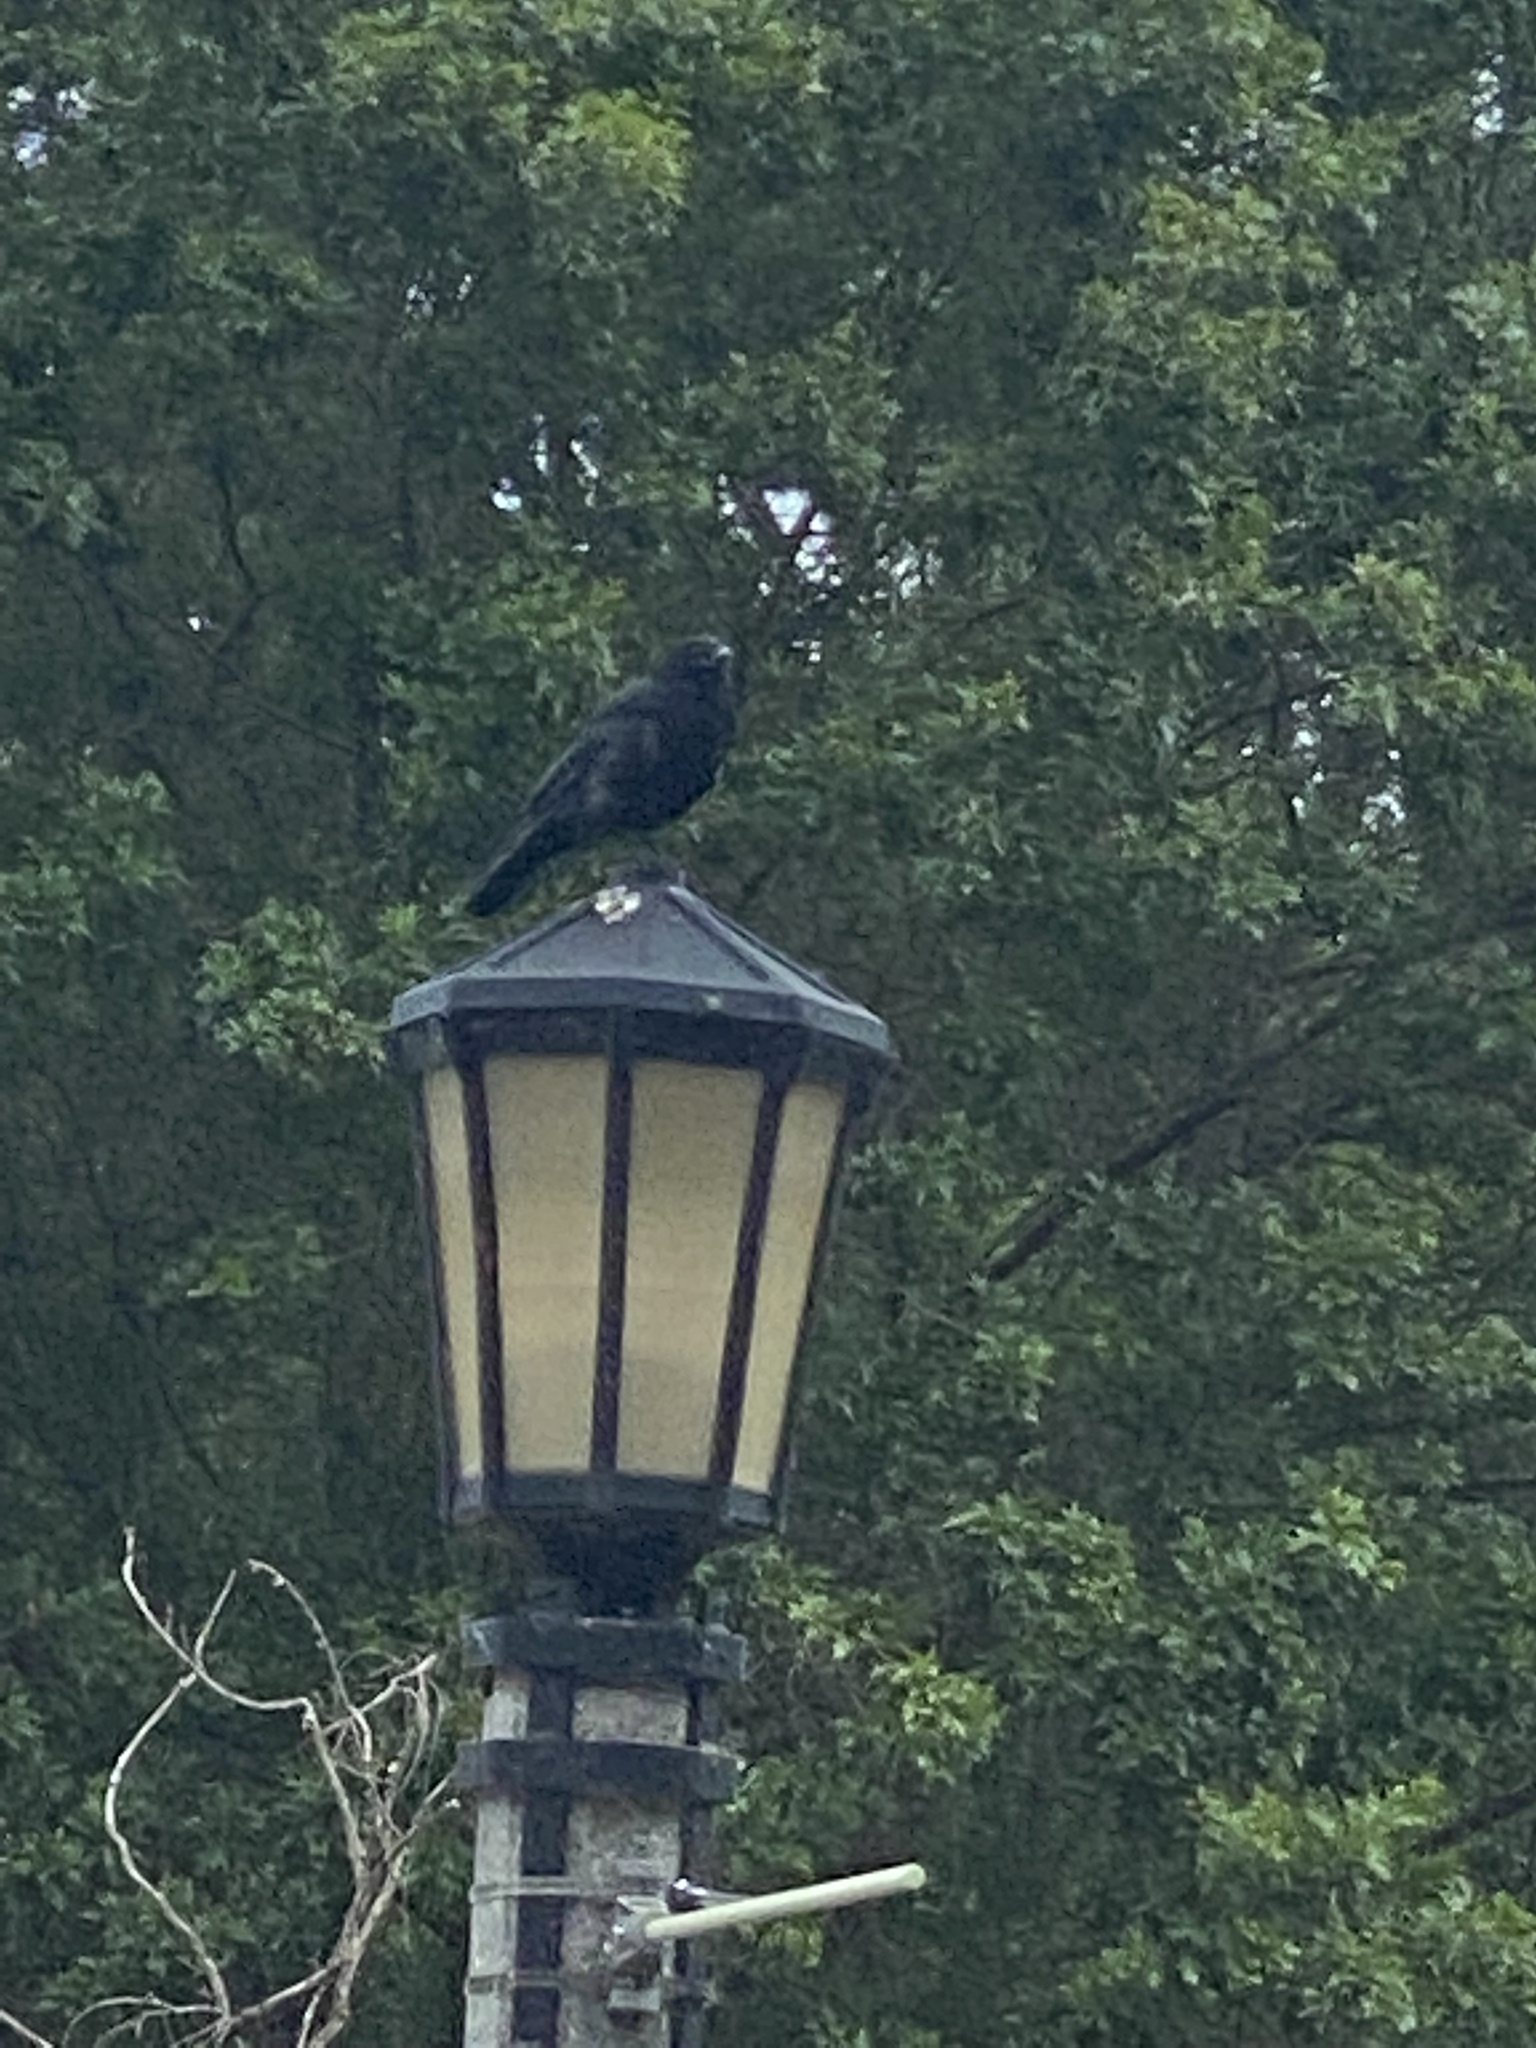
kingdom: Animalia
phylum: Chordata
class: Aves
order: Passeriformes
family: Corvidae
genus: Corvus
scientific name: Corvus brachyrhynchos
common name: American crow
